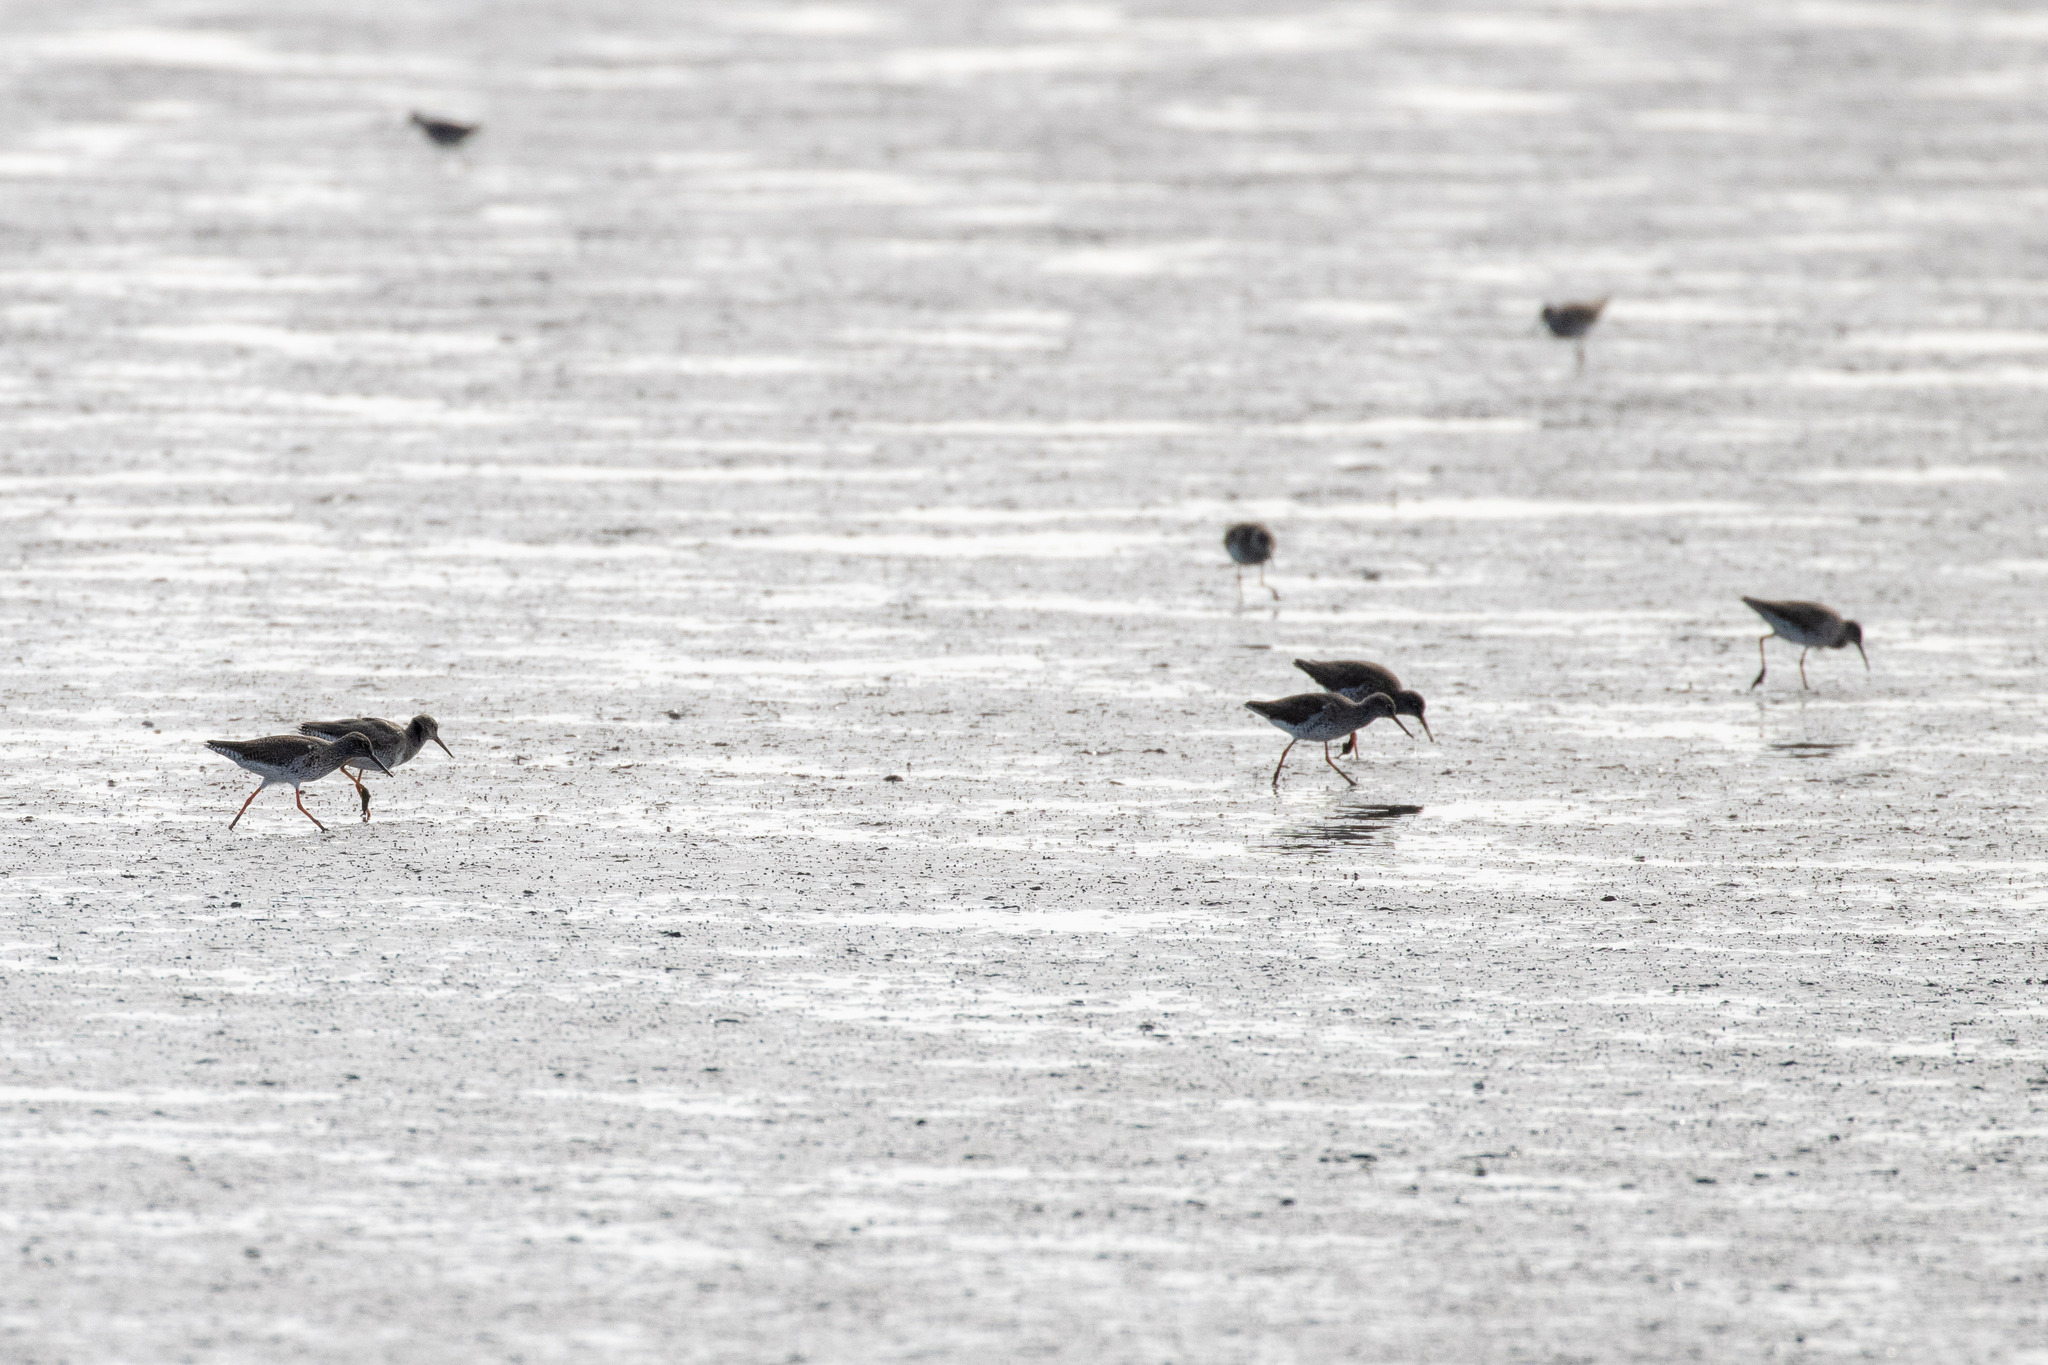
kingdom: Animalia
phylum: Chordata
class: Aves
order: Charadriiformes
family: Scolopacidae
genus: Tringa
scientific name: Tringa totanus
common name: Common redshank
